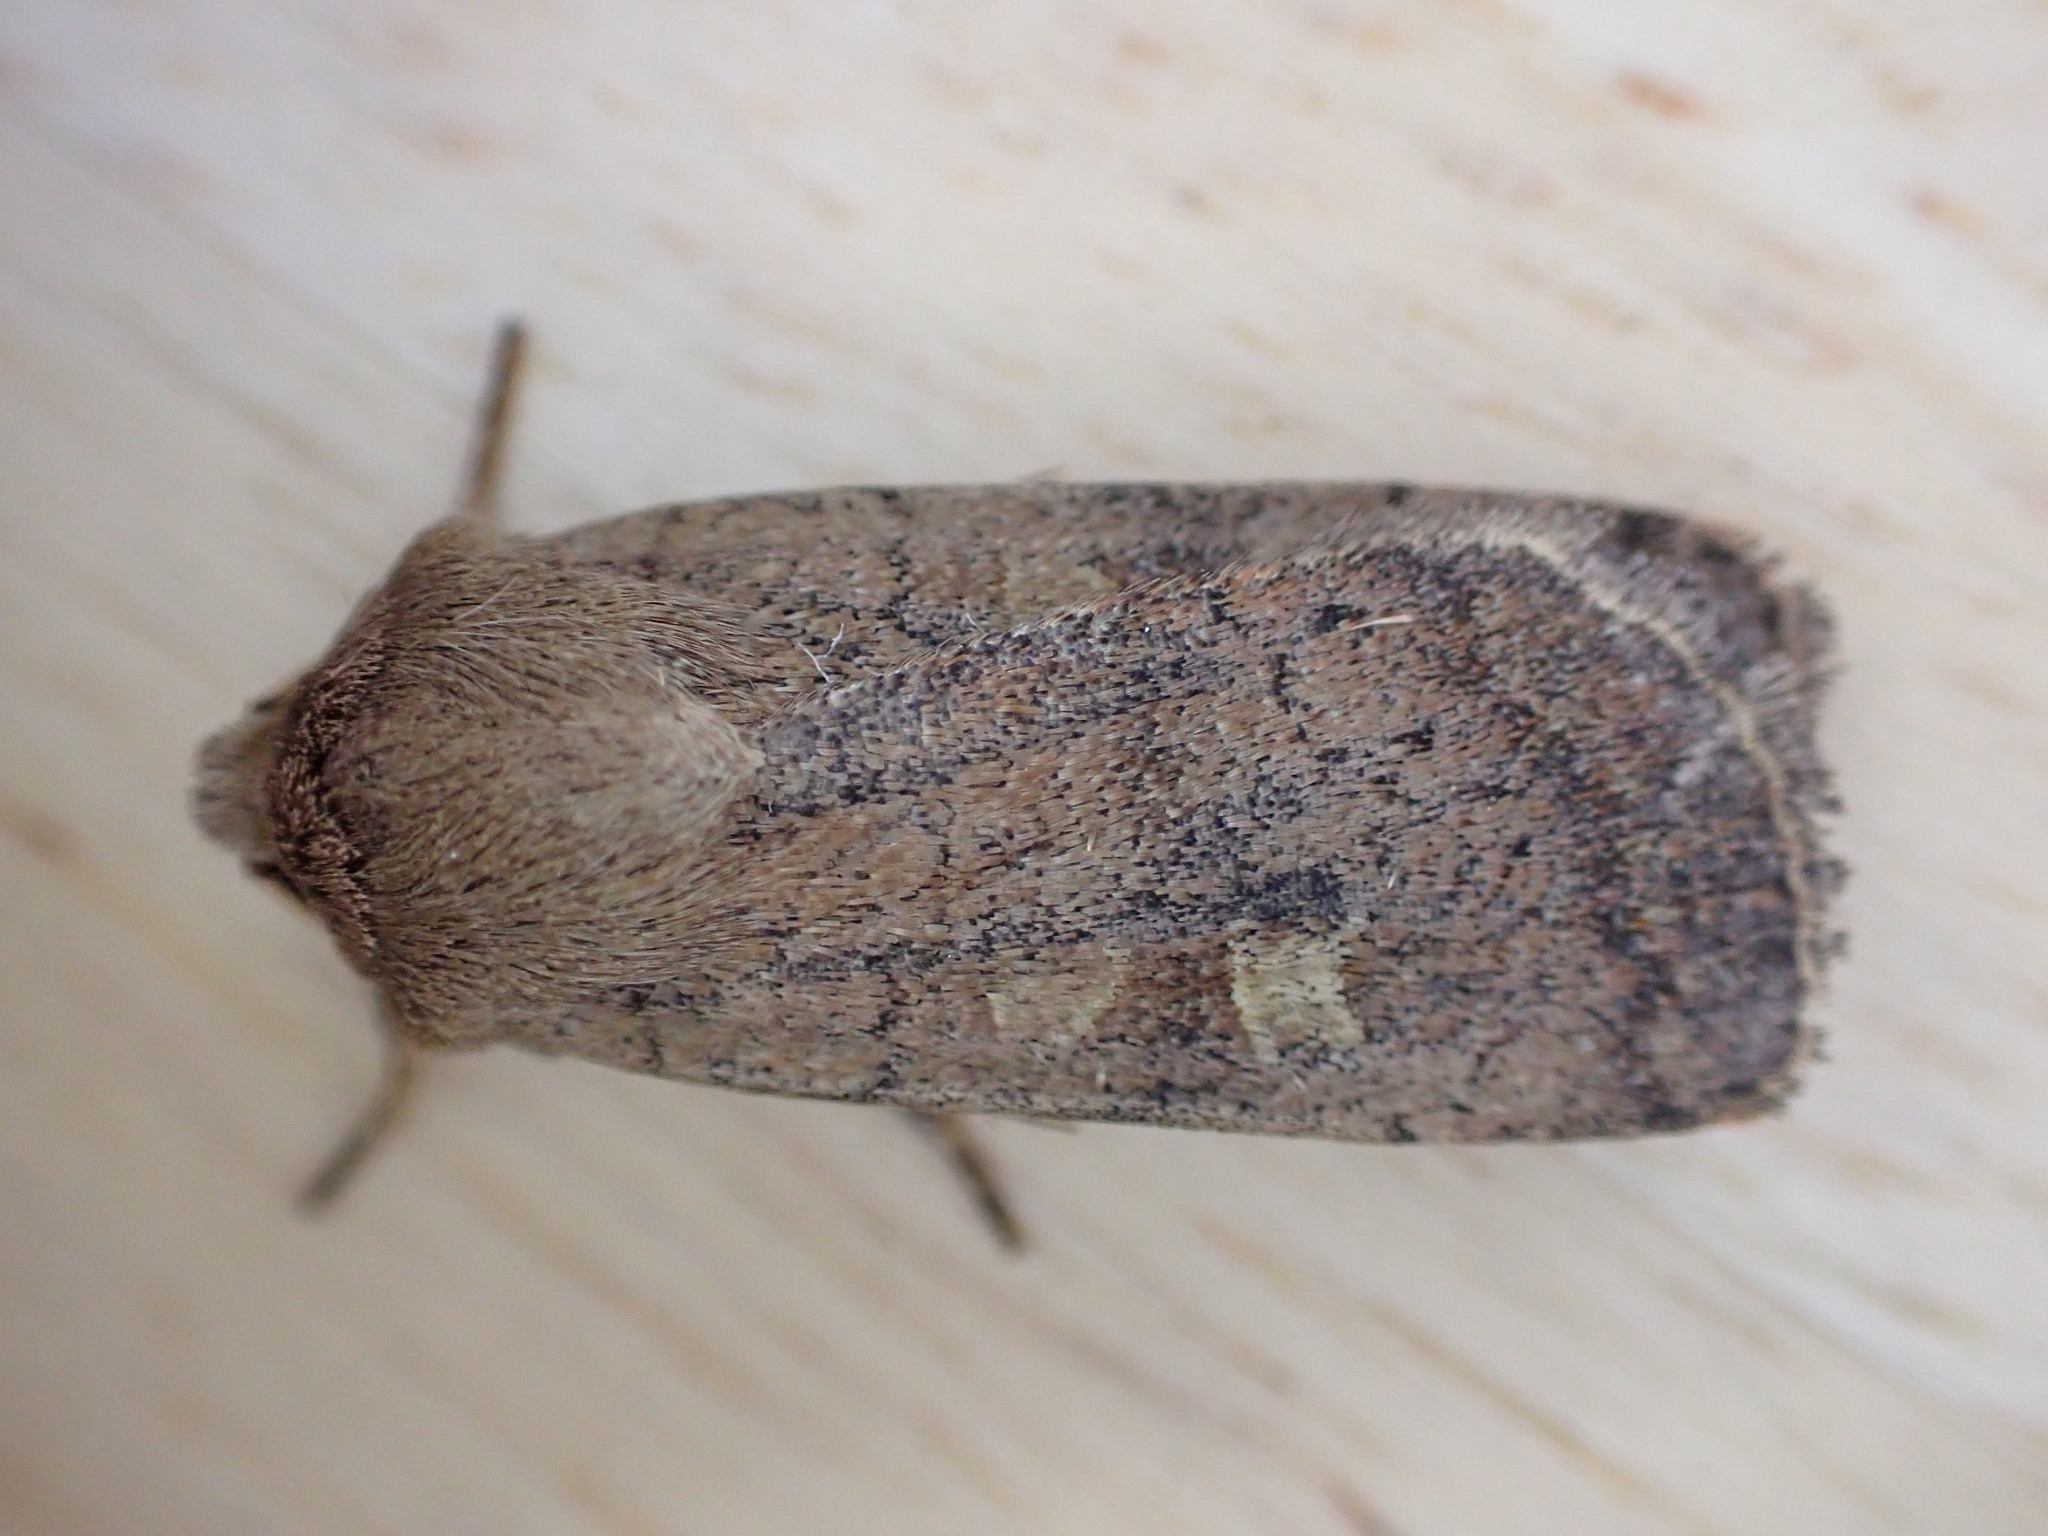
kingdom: Animalia
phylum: Arthropoda
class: Insecta
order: Lepidoptera
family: Noctuidae
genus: Xestia
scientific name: Xestia xanthographa
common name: Square-spot rustic
